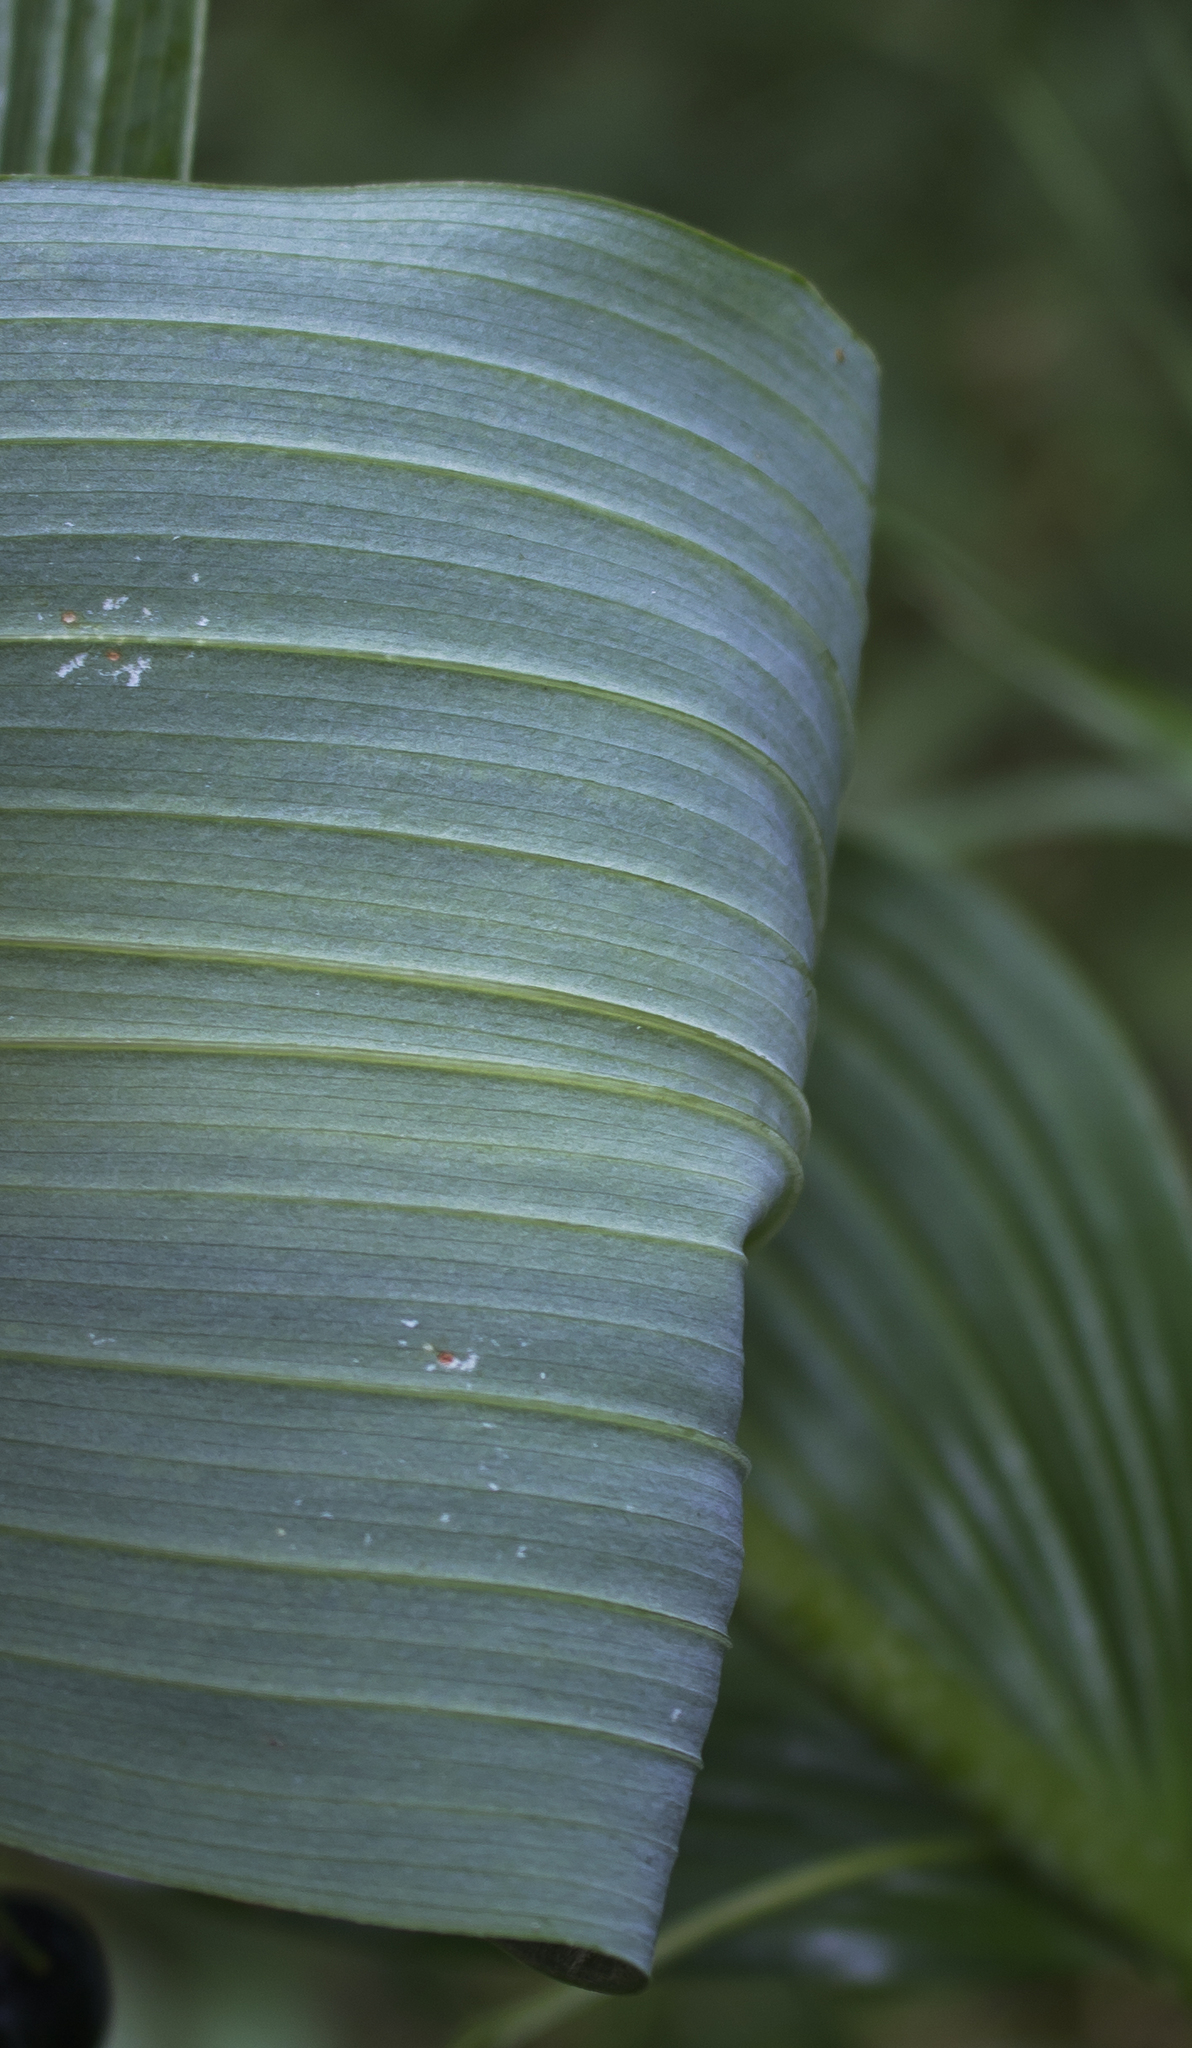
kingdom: Plantae
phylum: Tracheophyta
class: Liliopsida
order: Asparagales
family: Asparagaceae
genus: Polygonatum
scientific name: Polygonatum biflorum
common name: American solomon's-seal
